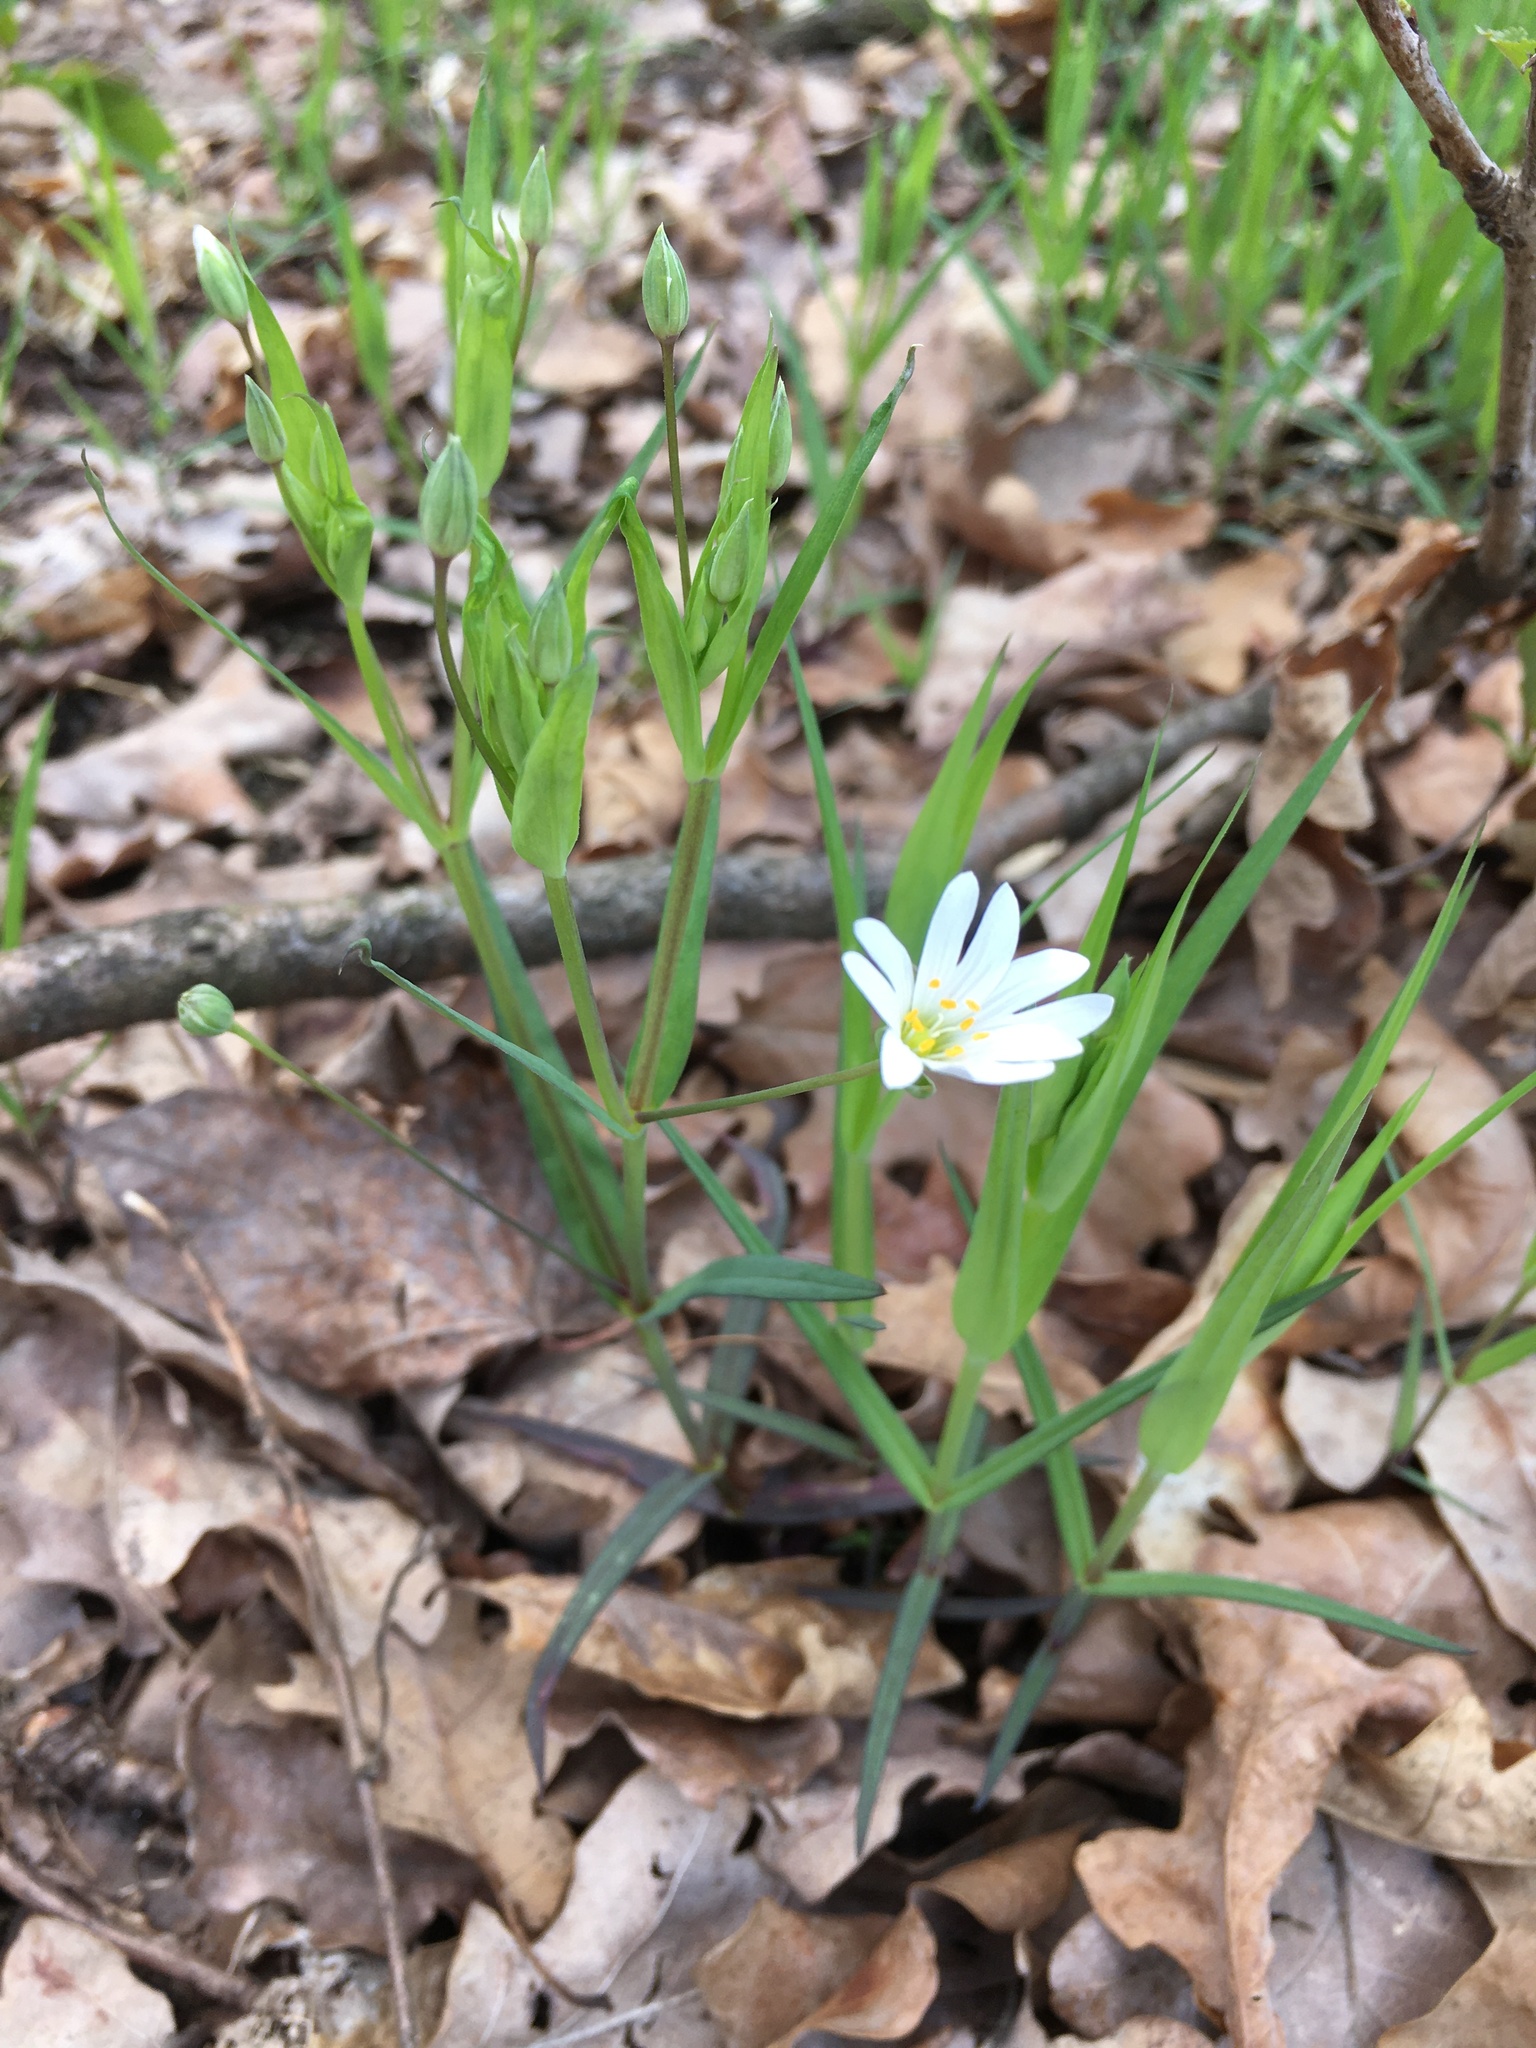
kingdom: Plantae
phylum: Tracheophyta
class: Magnoliopsida
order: Caryophyllales
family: Caryophyllaceae
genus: Rabelera
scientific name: Rabelera holostea
